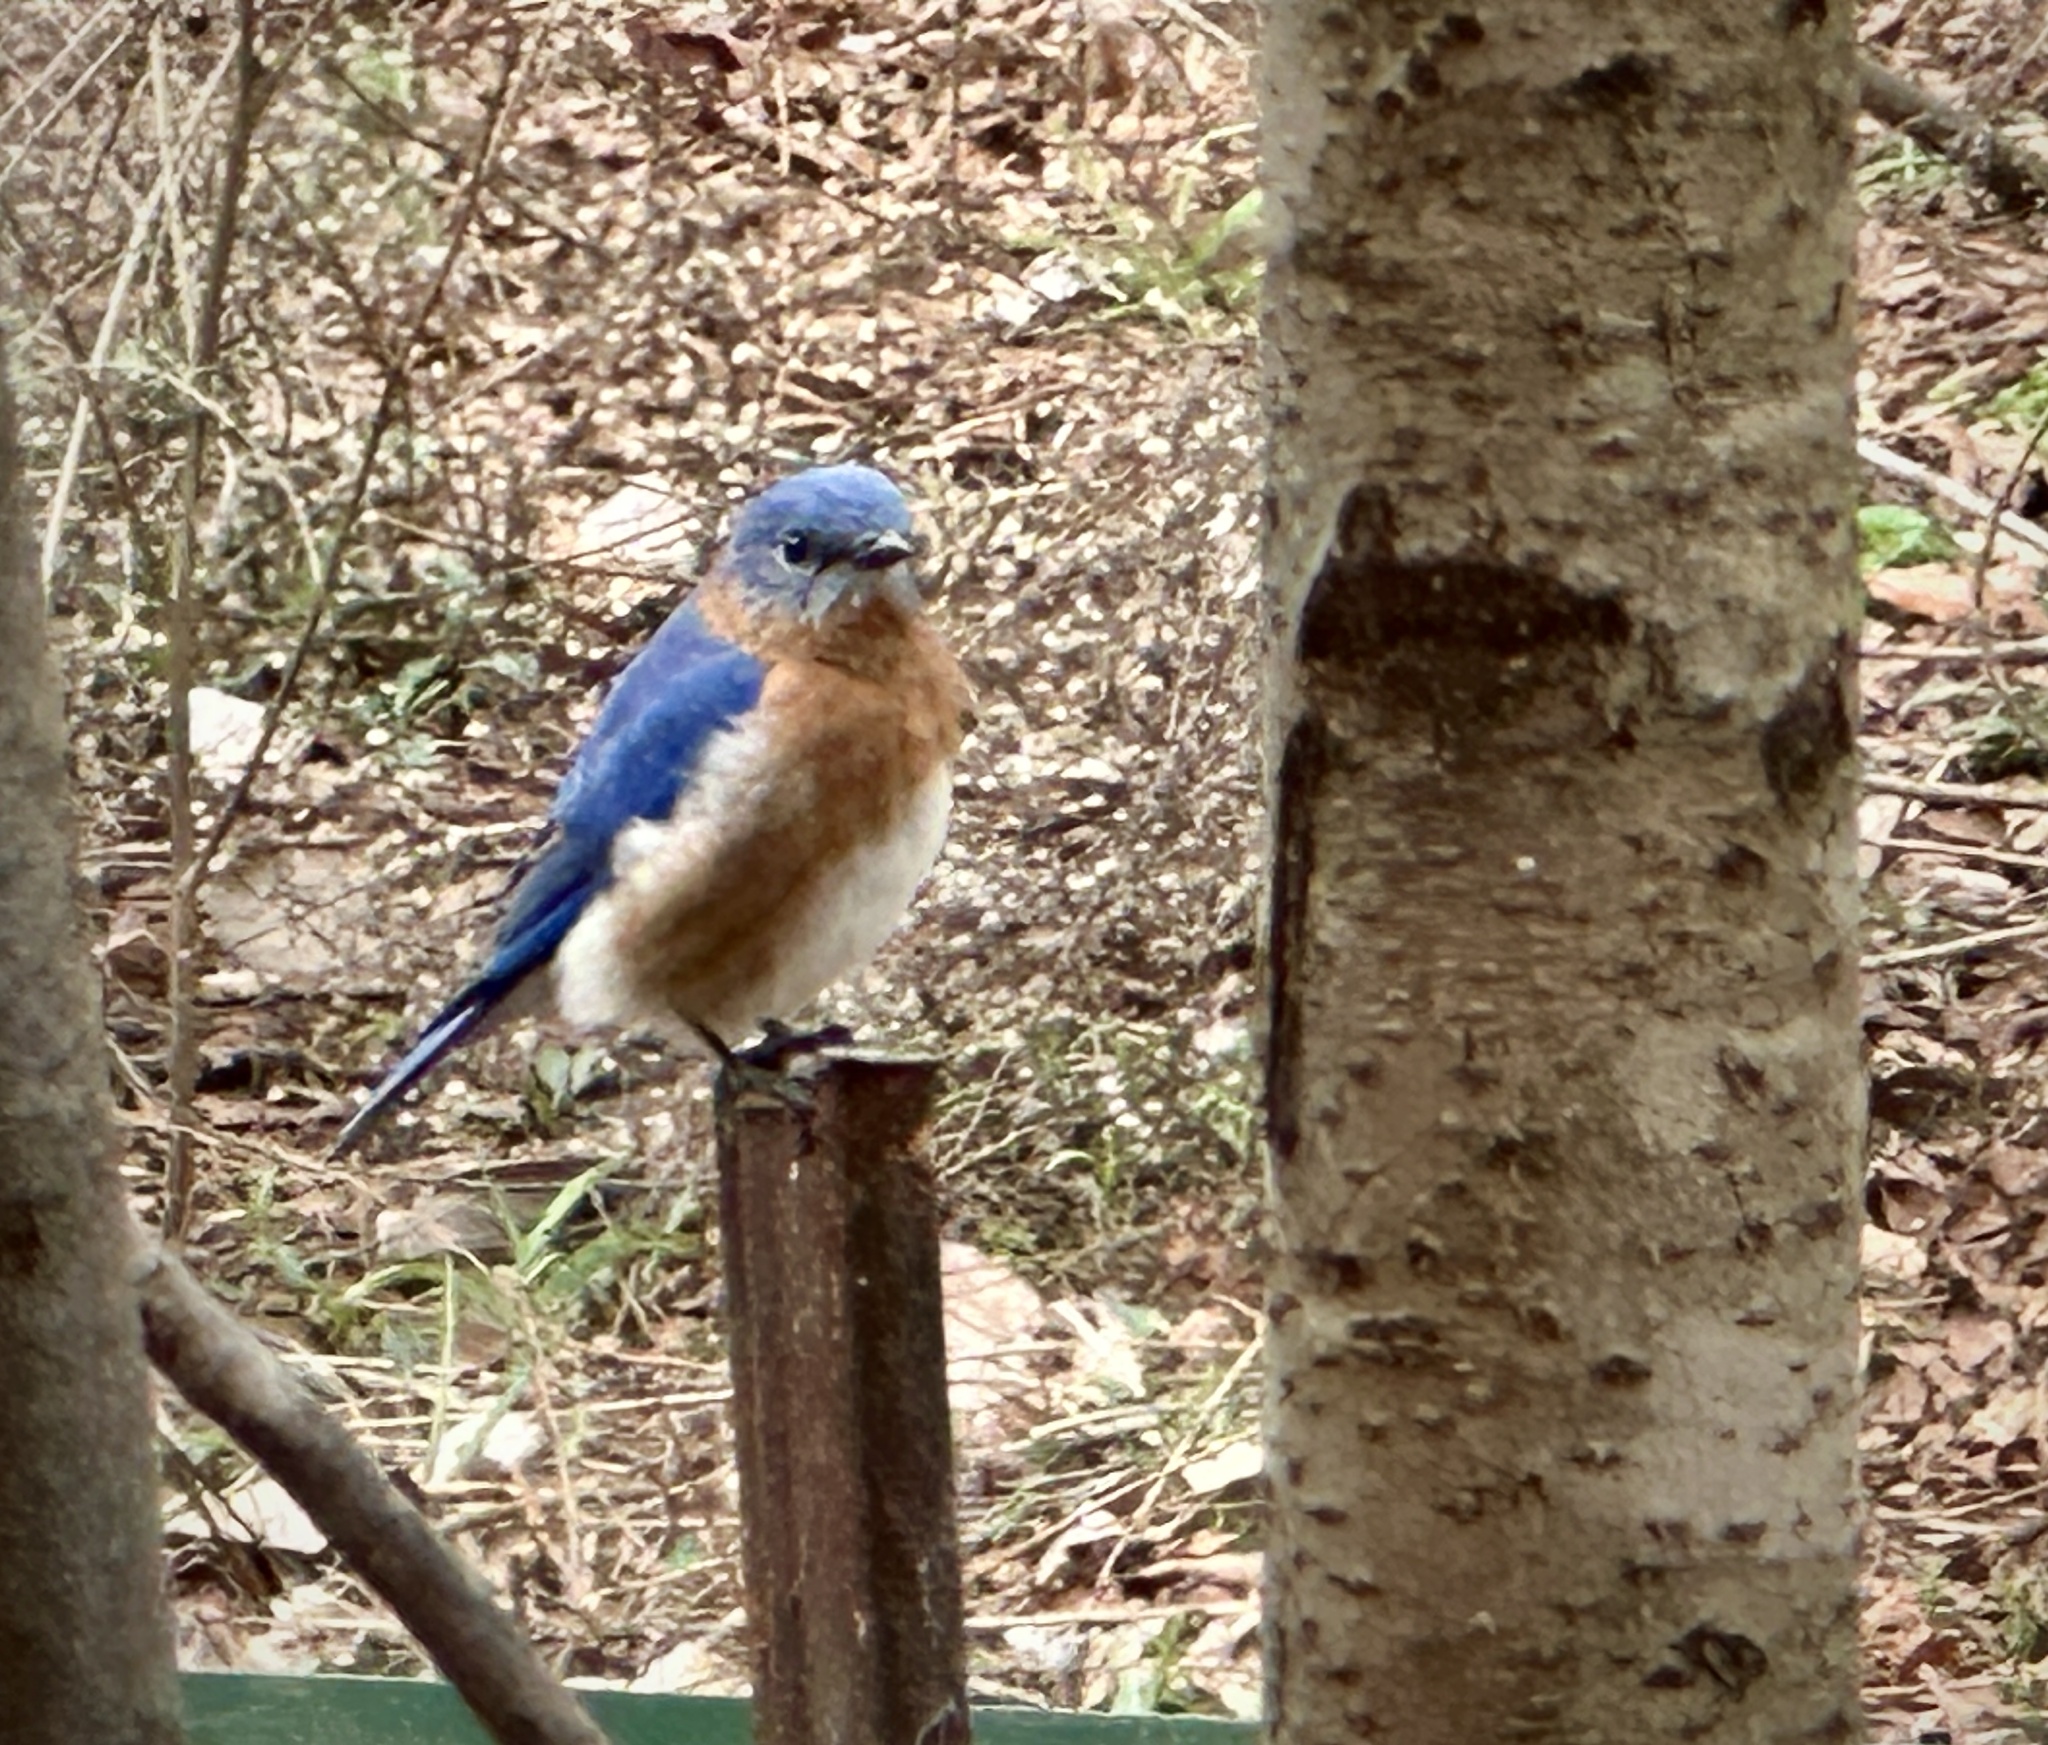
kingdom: Animalia
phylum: Chordata
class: Aves
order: Passeriformes
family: Turdidae
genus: Sialia
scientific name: Sialia sialis
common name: Eastern bluebird
